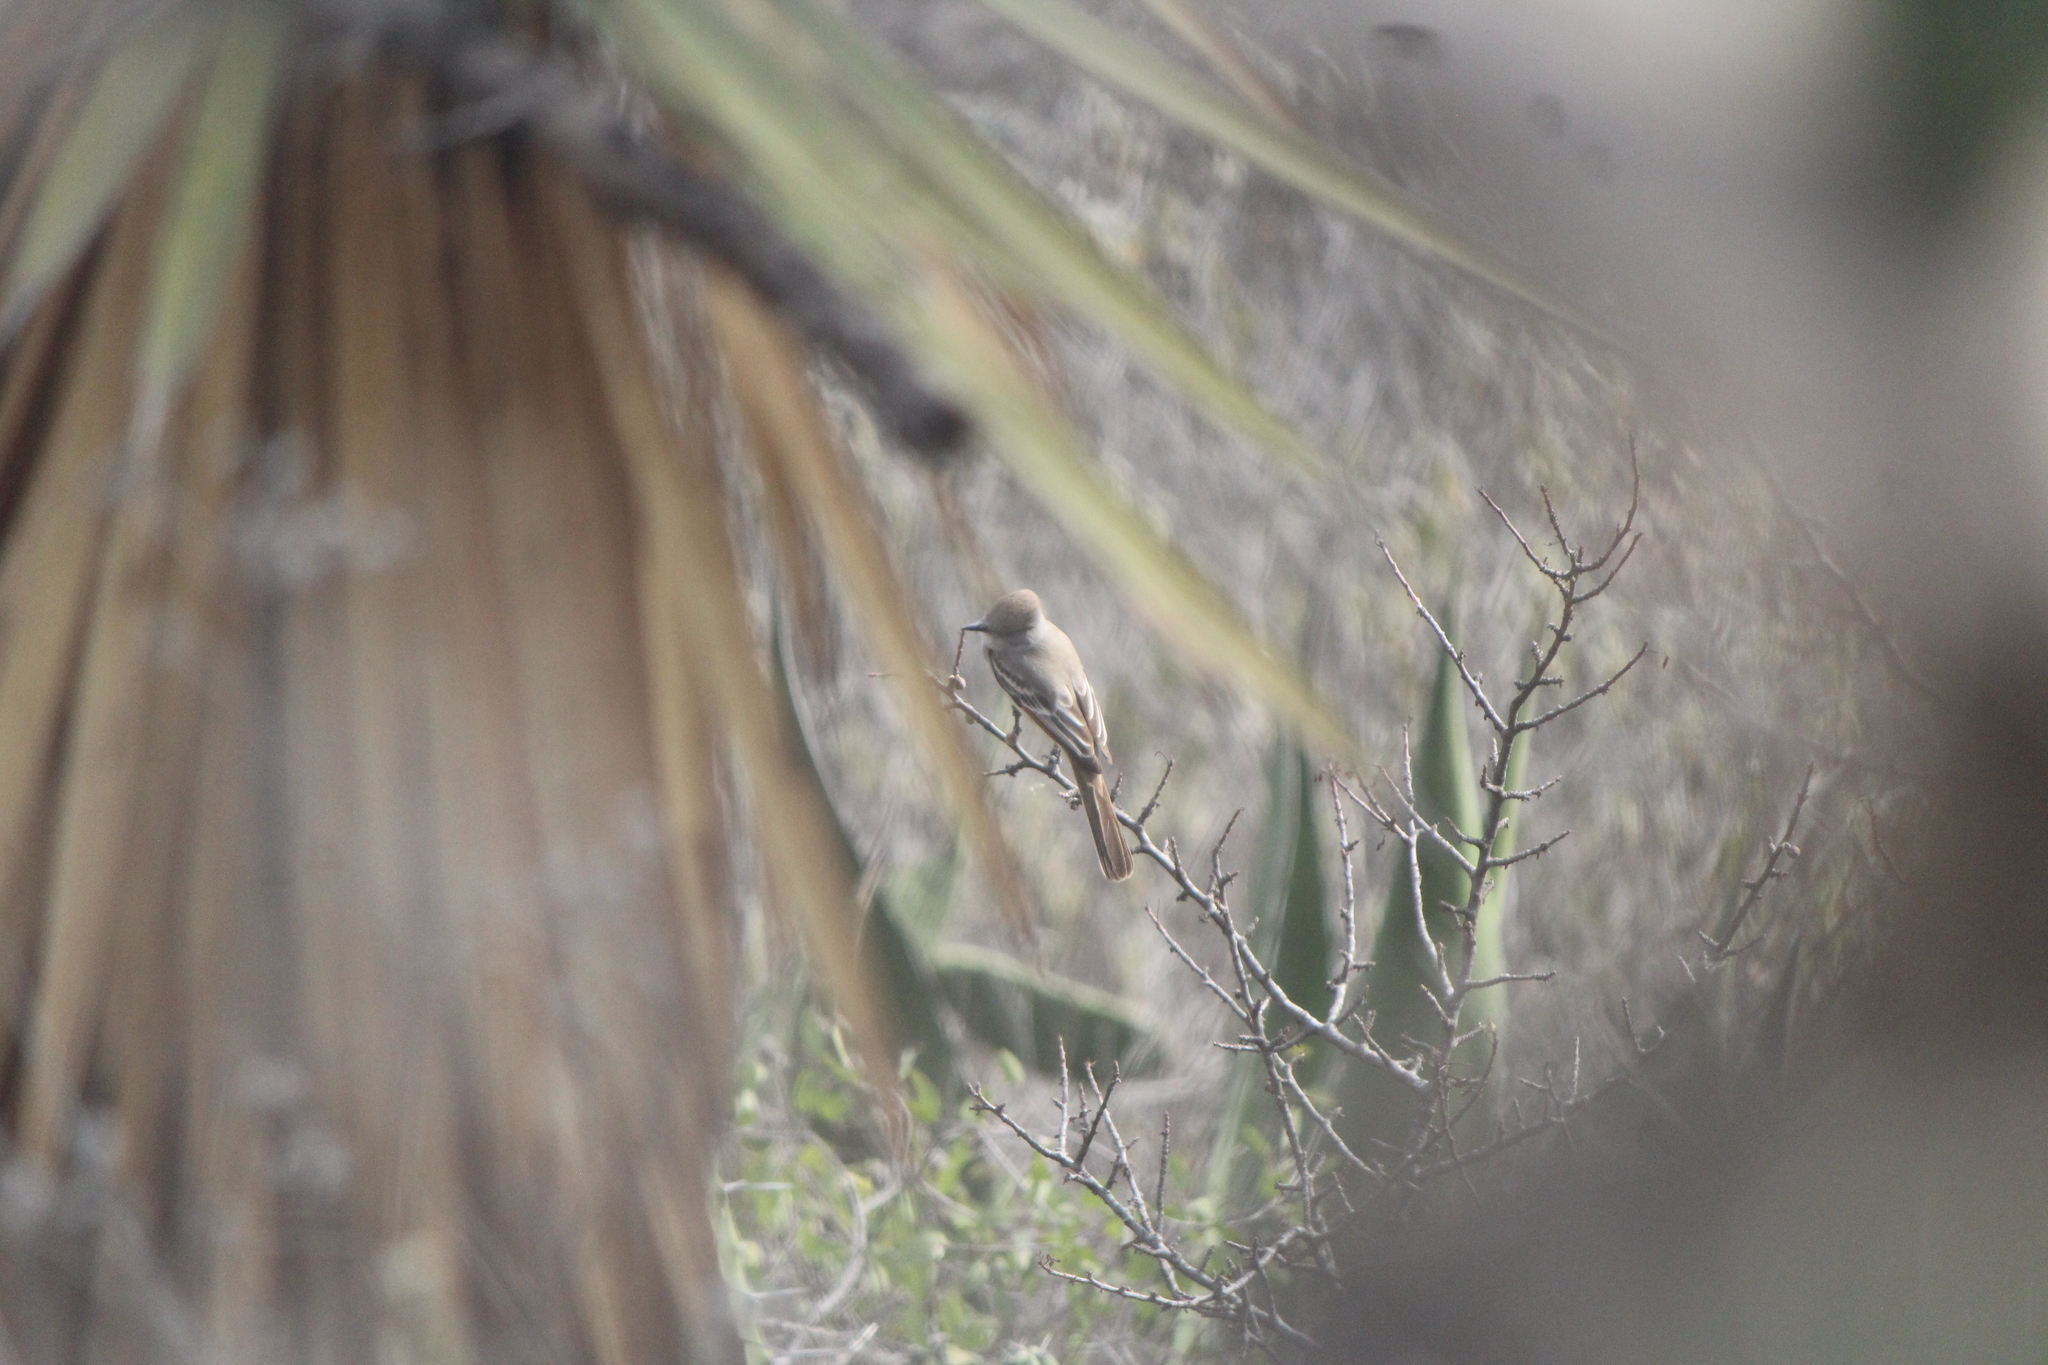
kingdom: Animalia
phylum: Chordata
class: Aves
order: Passeriformes
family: Tyrannidae
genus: Myiarchus
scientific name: Myiarchus cinerascens
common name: Ash-throated flycatcher
